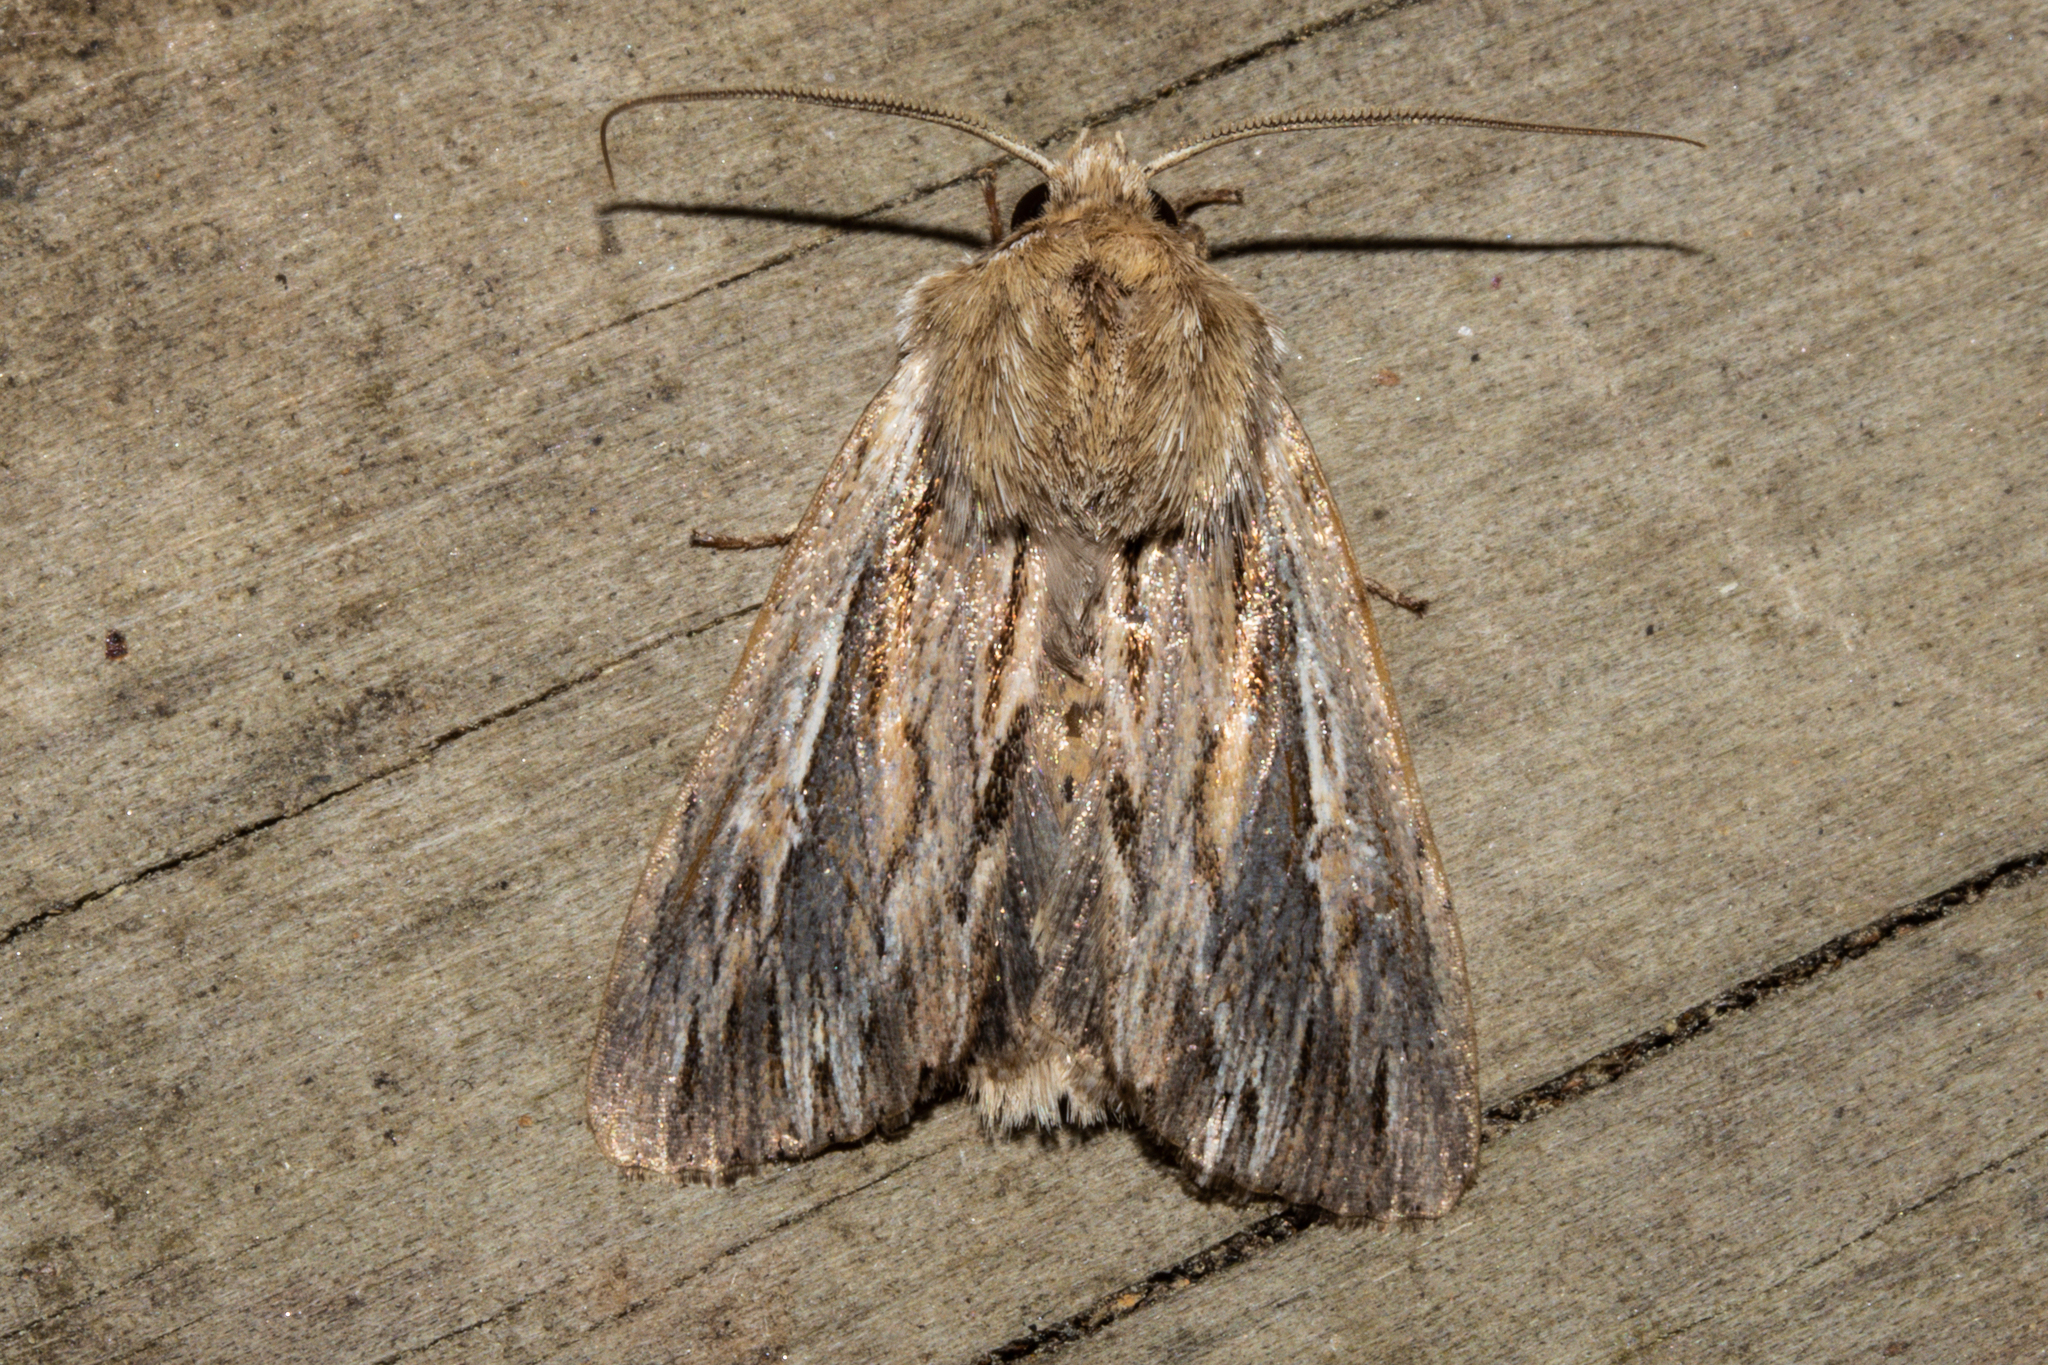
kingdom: Animalia
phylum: Arthropoda
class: Insecta
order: Lepidoptera
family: Noctuidae
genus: Persectania
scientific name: Persectania aversa
